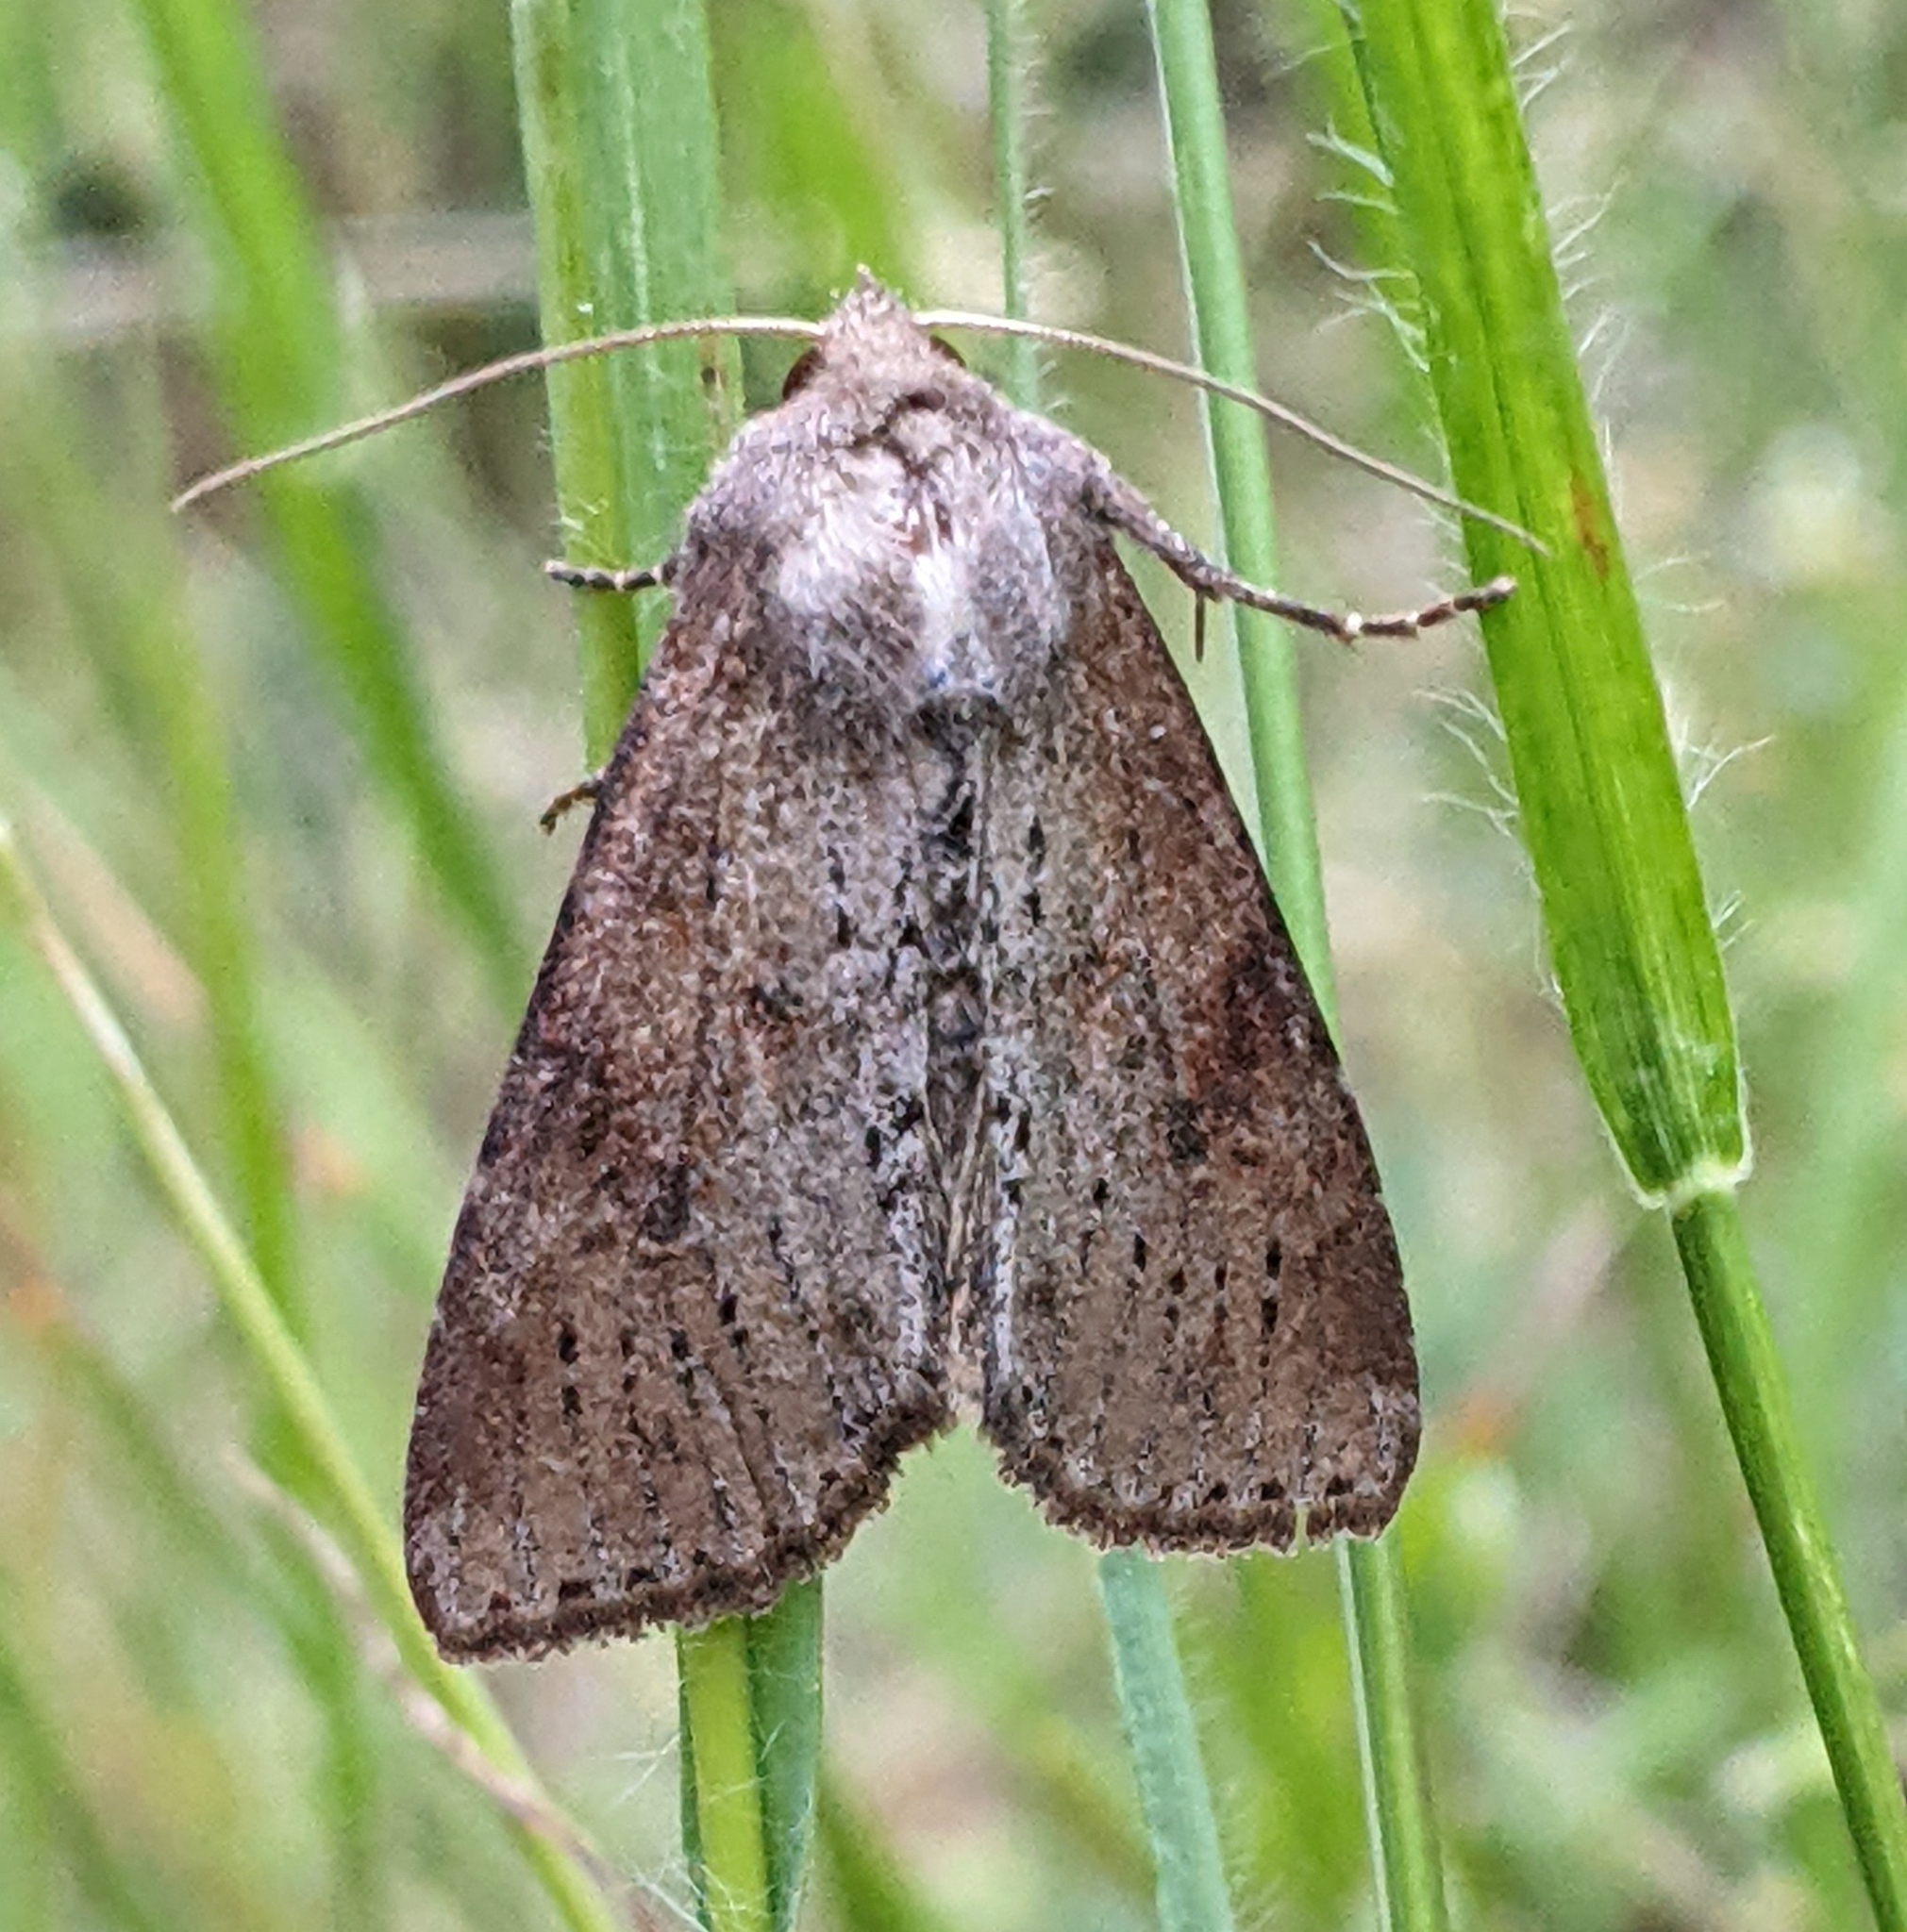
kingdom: Animalia
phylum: Arthropoda
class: Insecta
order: Lepidoptera
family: Noctuidae
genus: Apamea
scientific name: Apamea alia
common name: Fox apamea
